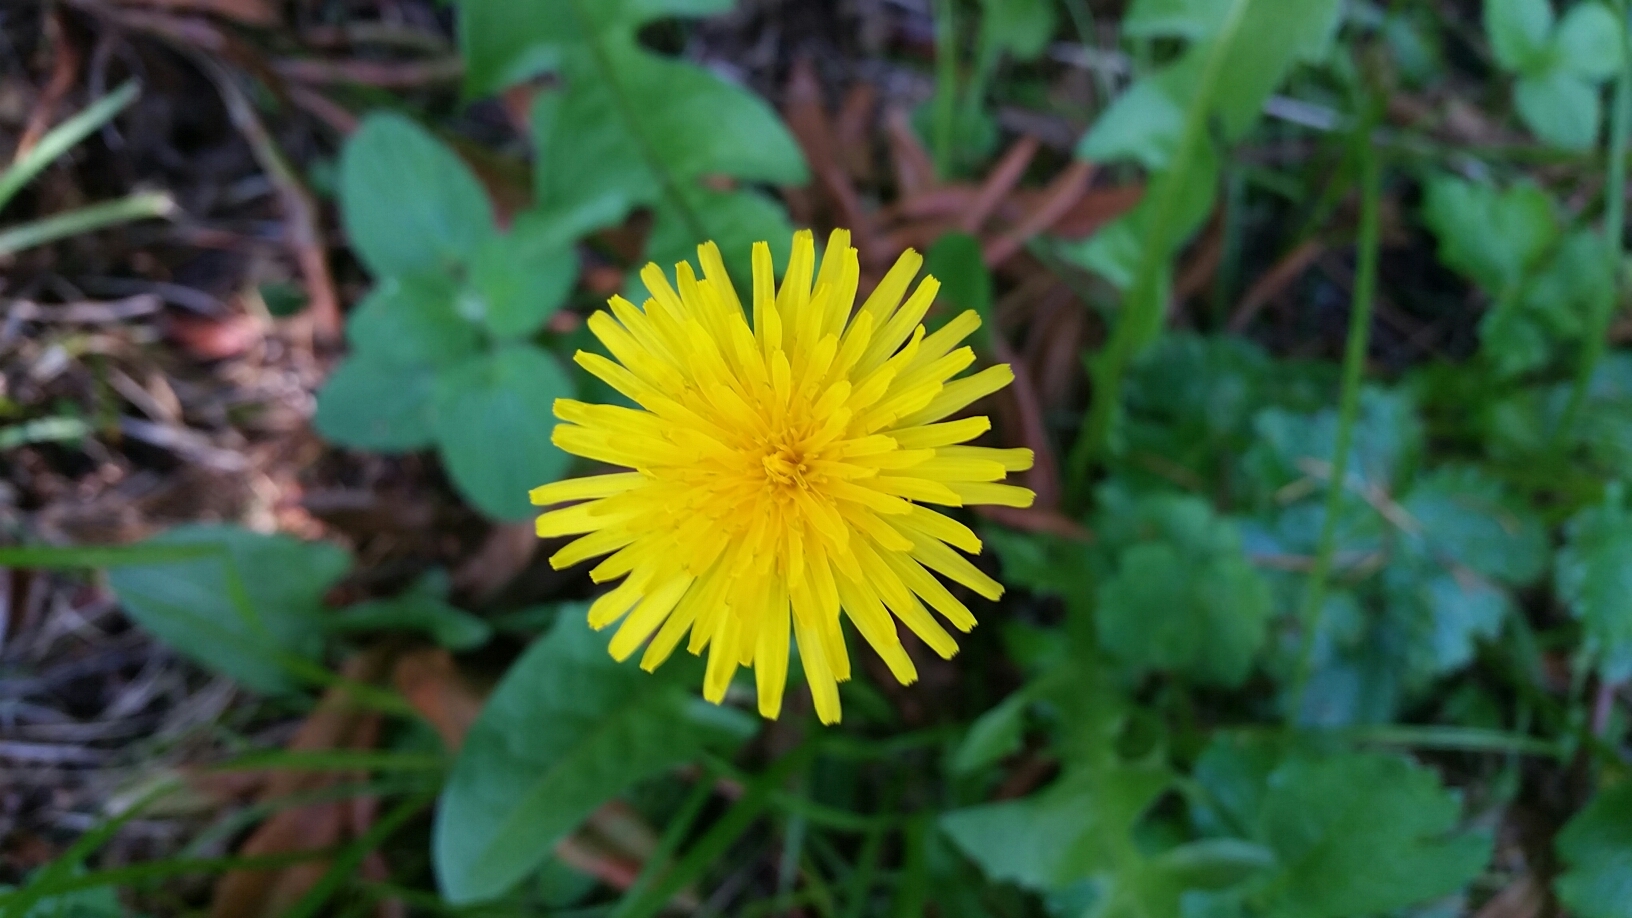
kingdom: Plantae
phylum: Tracheophyta
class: Magnoliopsida
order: Asterales
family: Asteraceae
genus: Taraxacum
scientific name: Taraxacum officinale
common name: Common dandelion
